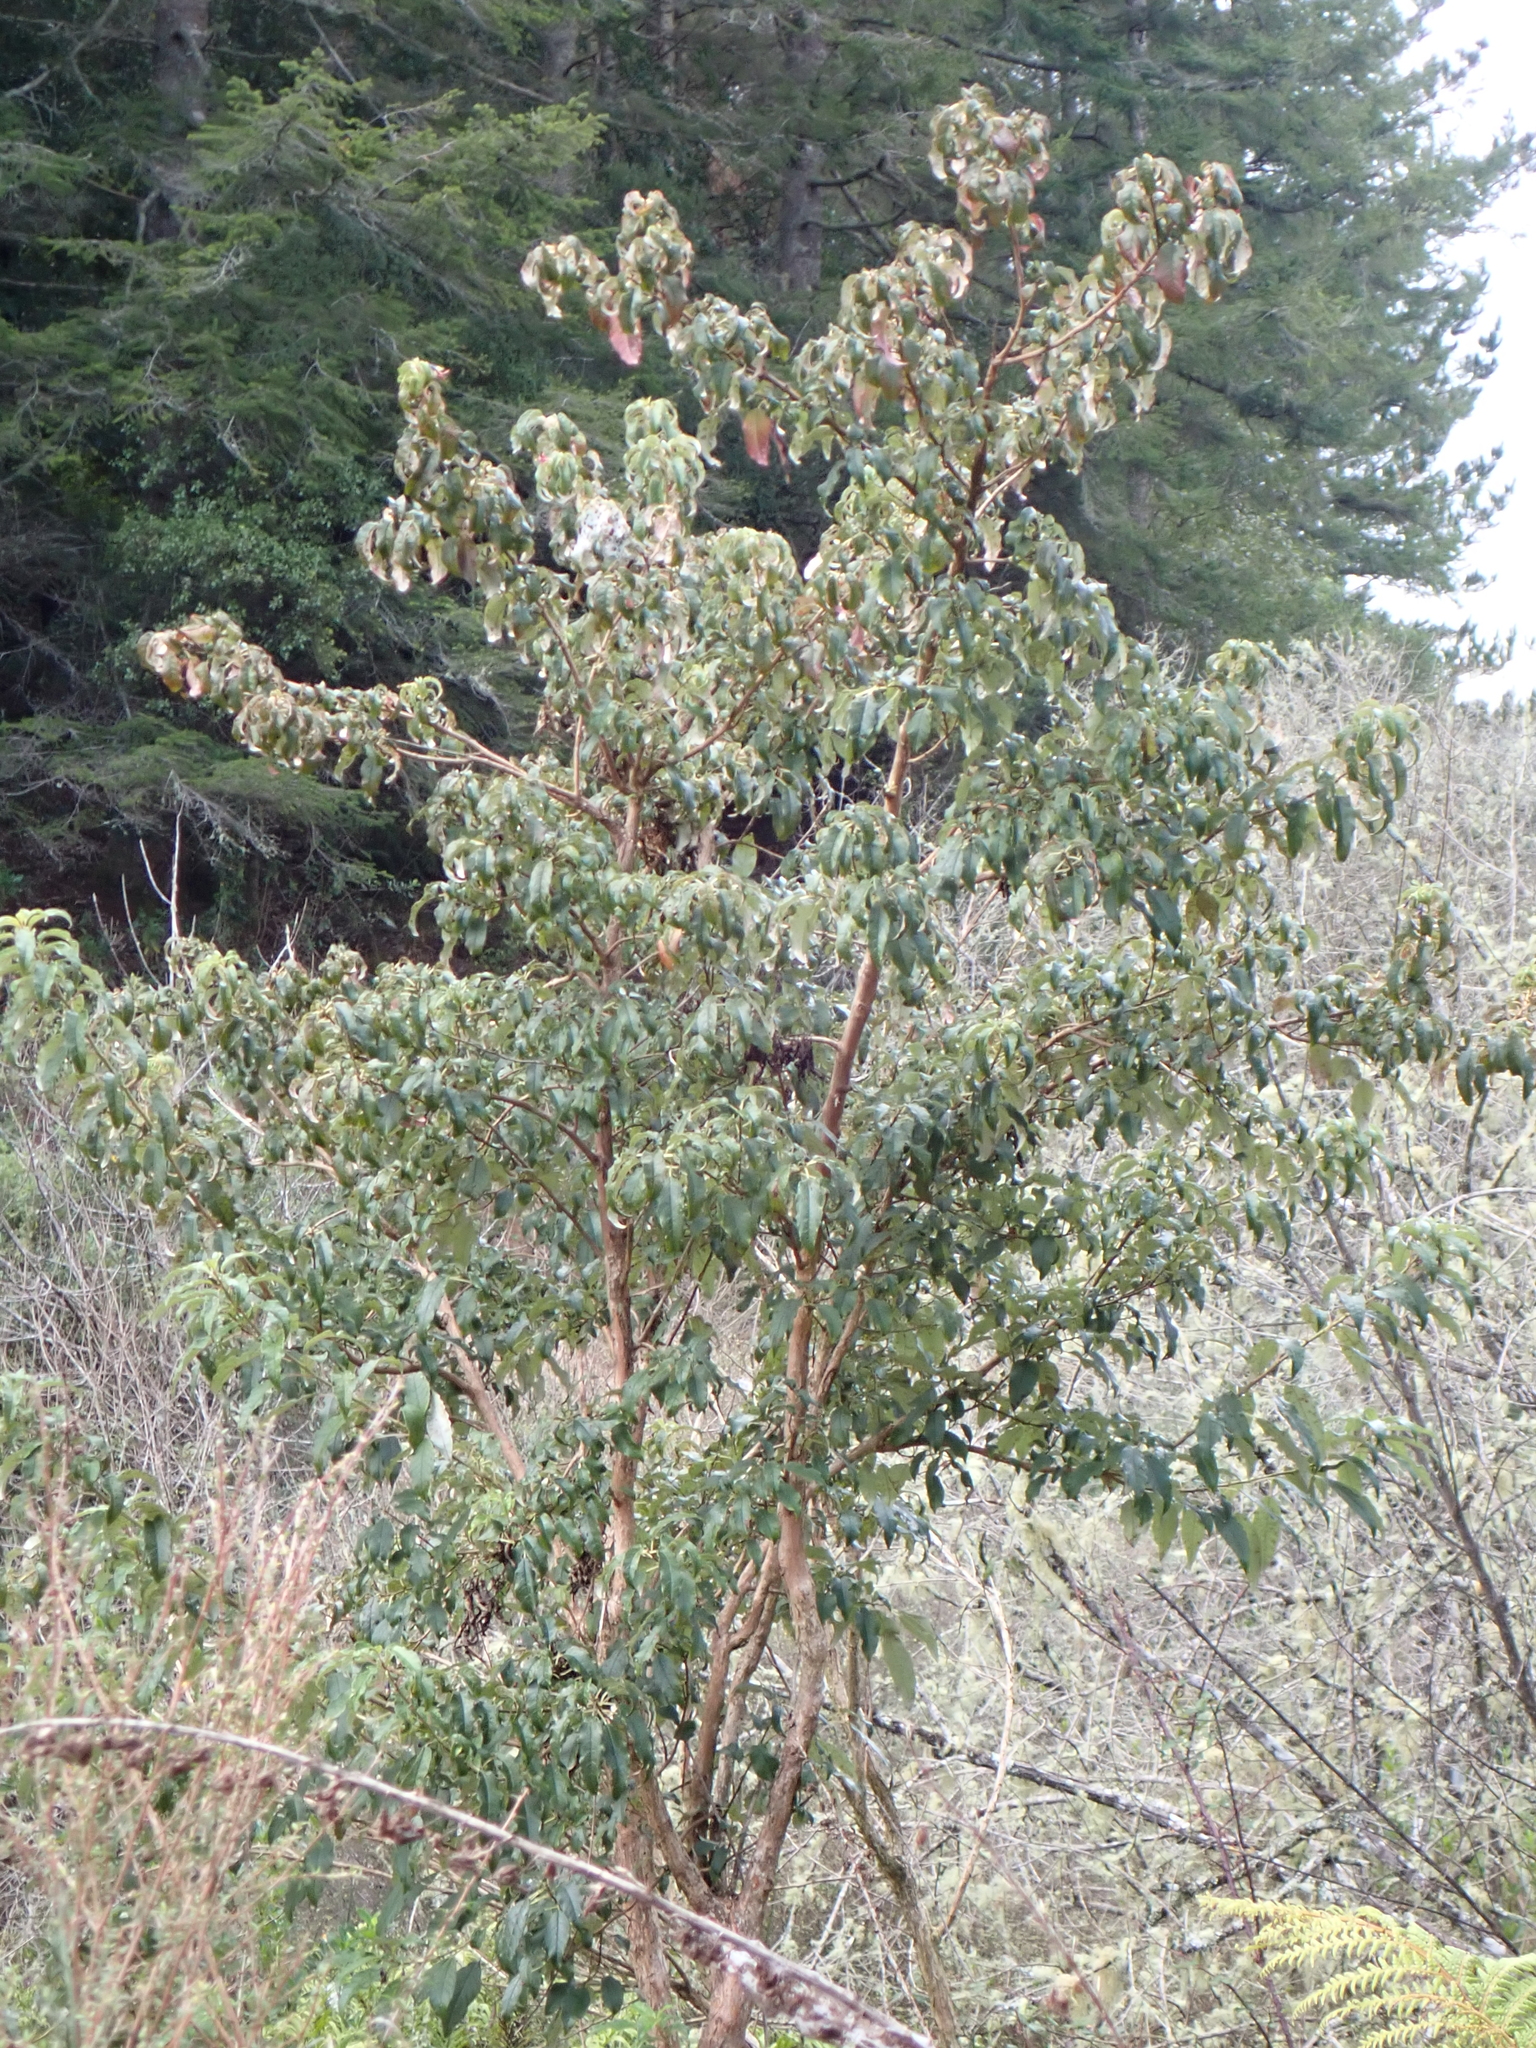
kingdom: Plantae
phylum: Tracheophyta
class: Magnoliopsida
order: Myrtales
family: Onagraceae
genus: Fuchsia
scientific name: Fuchsia excorticata
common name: Tree fuchsia
